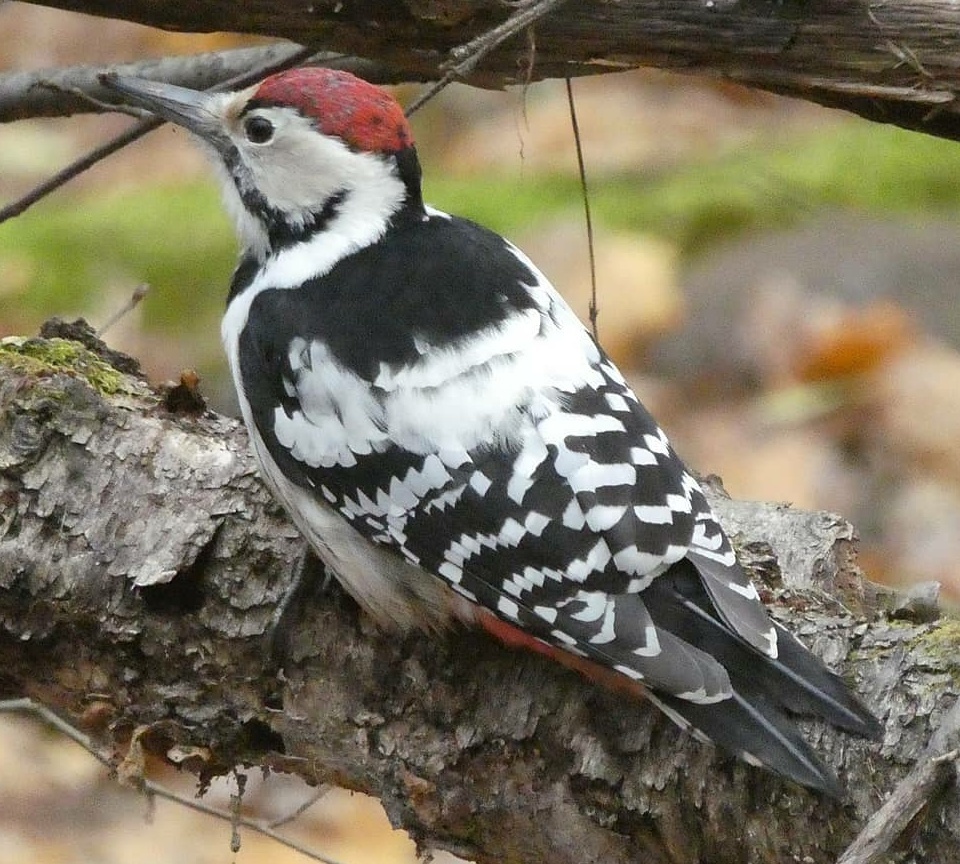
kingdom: Animalia
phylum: Chordata
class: Aves
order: Piciformes
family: Picidae
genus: Dendrocopos
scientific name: Dendrocopos leucotos
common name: White-backed woodpecker
